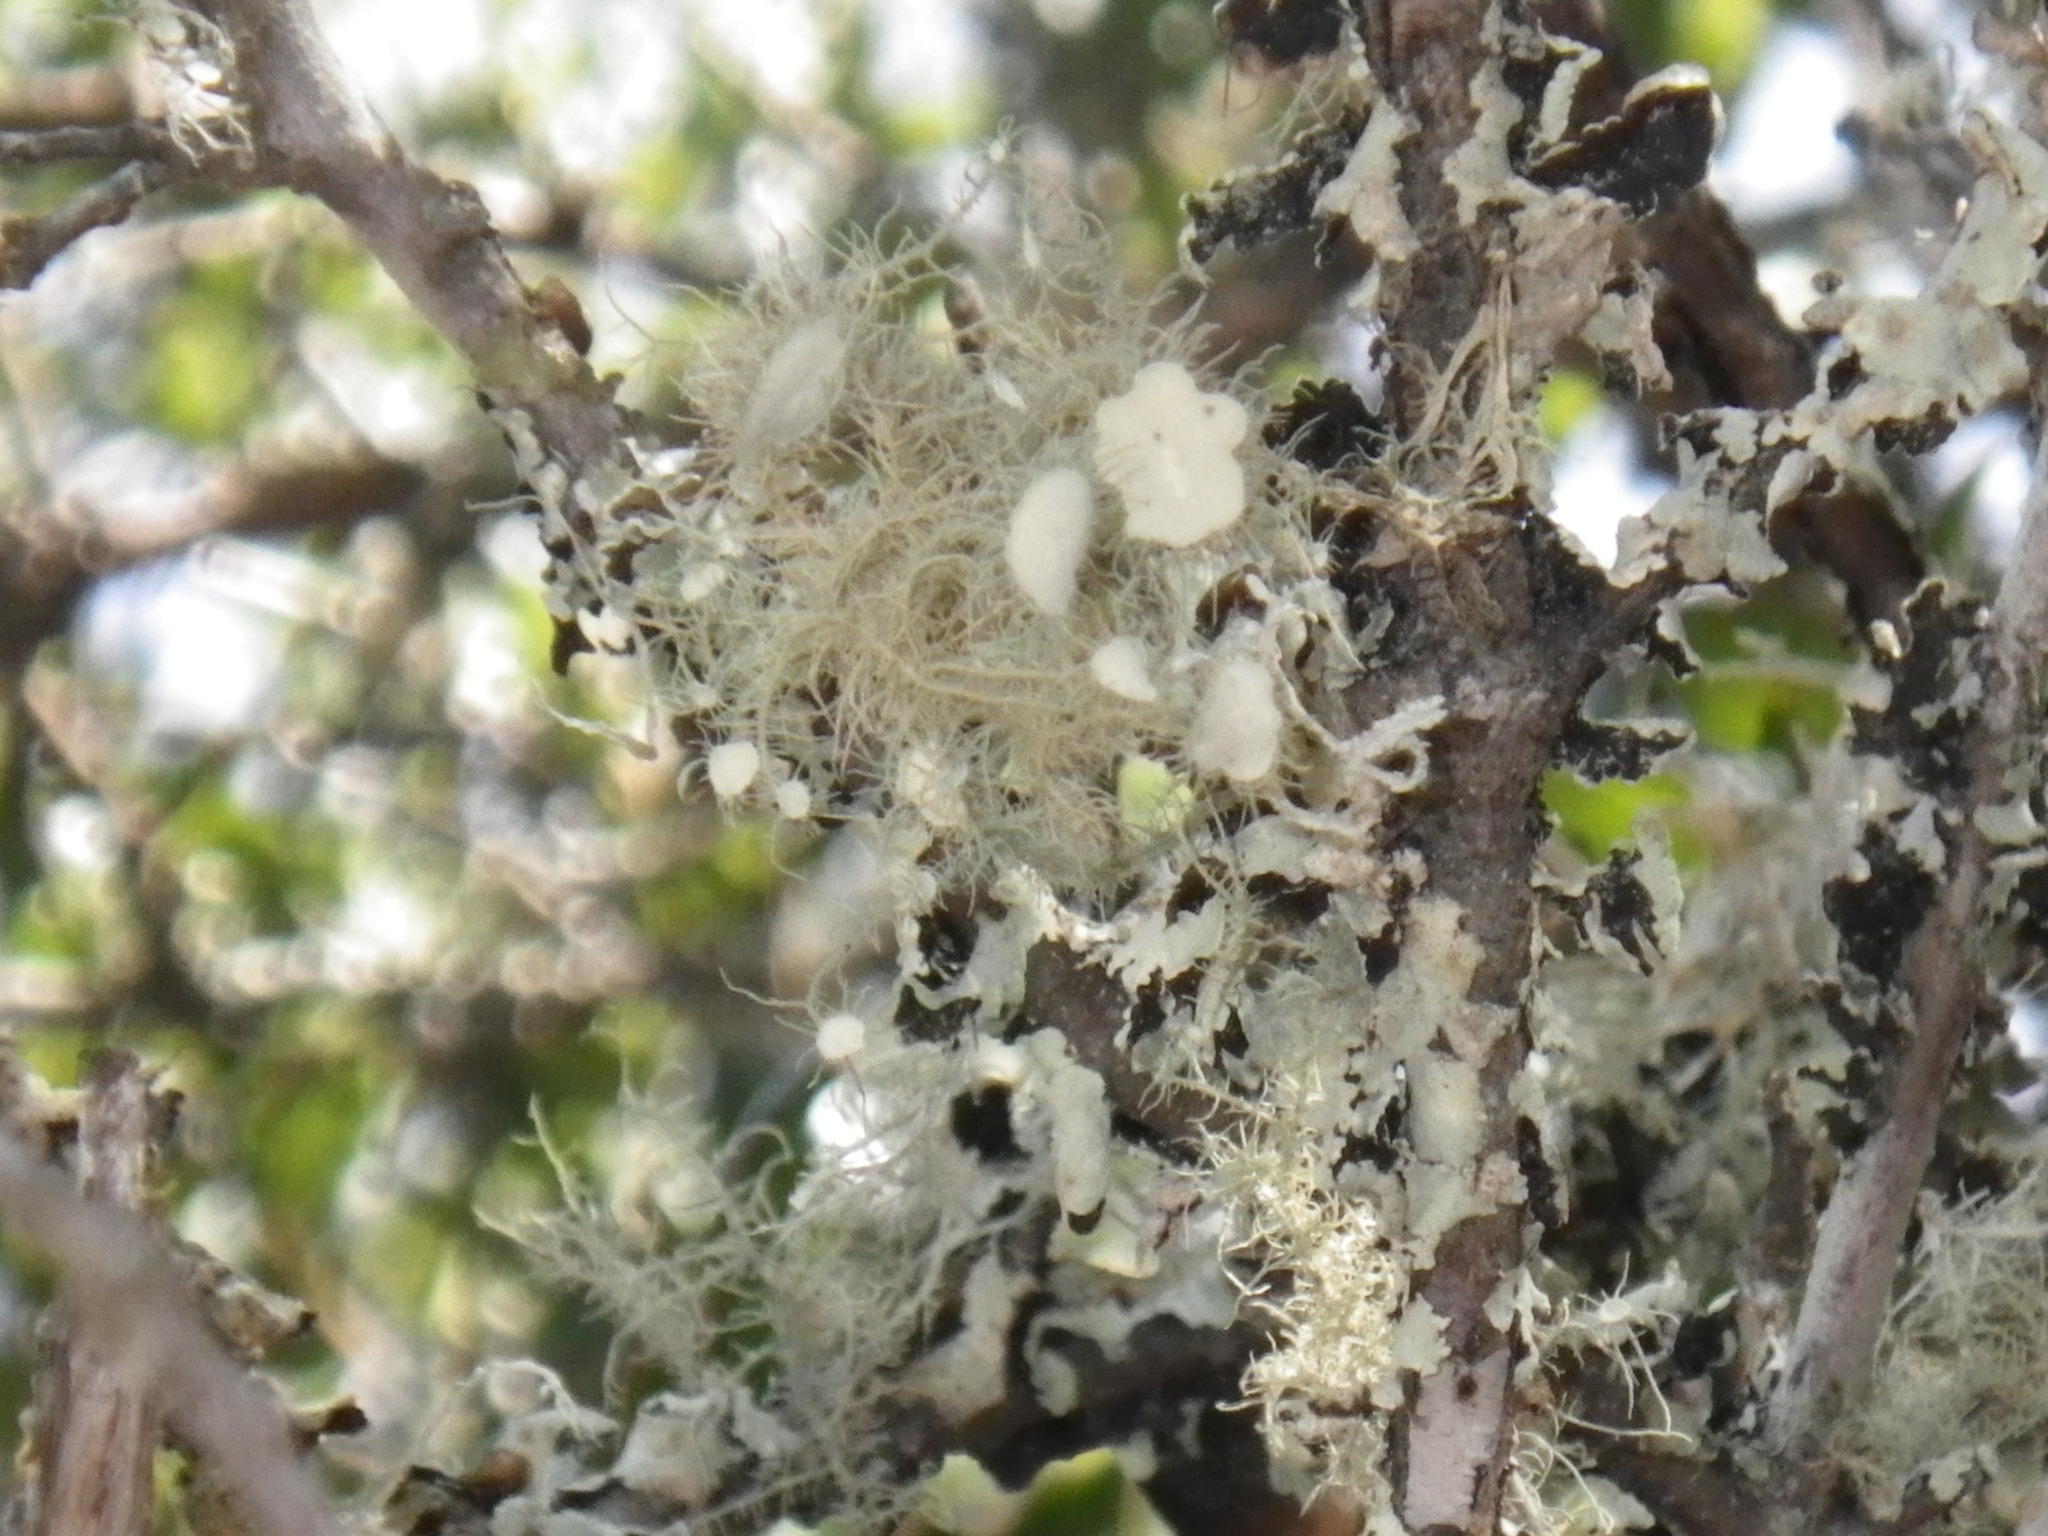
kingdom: Fungi
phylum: Ascomycota
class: Lecanoromycetes
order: Lecanorales
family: Parmeliaceae
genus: Usnea
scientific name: Usnea intermedia
